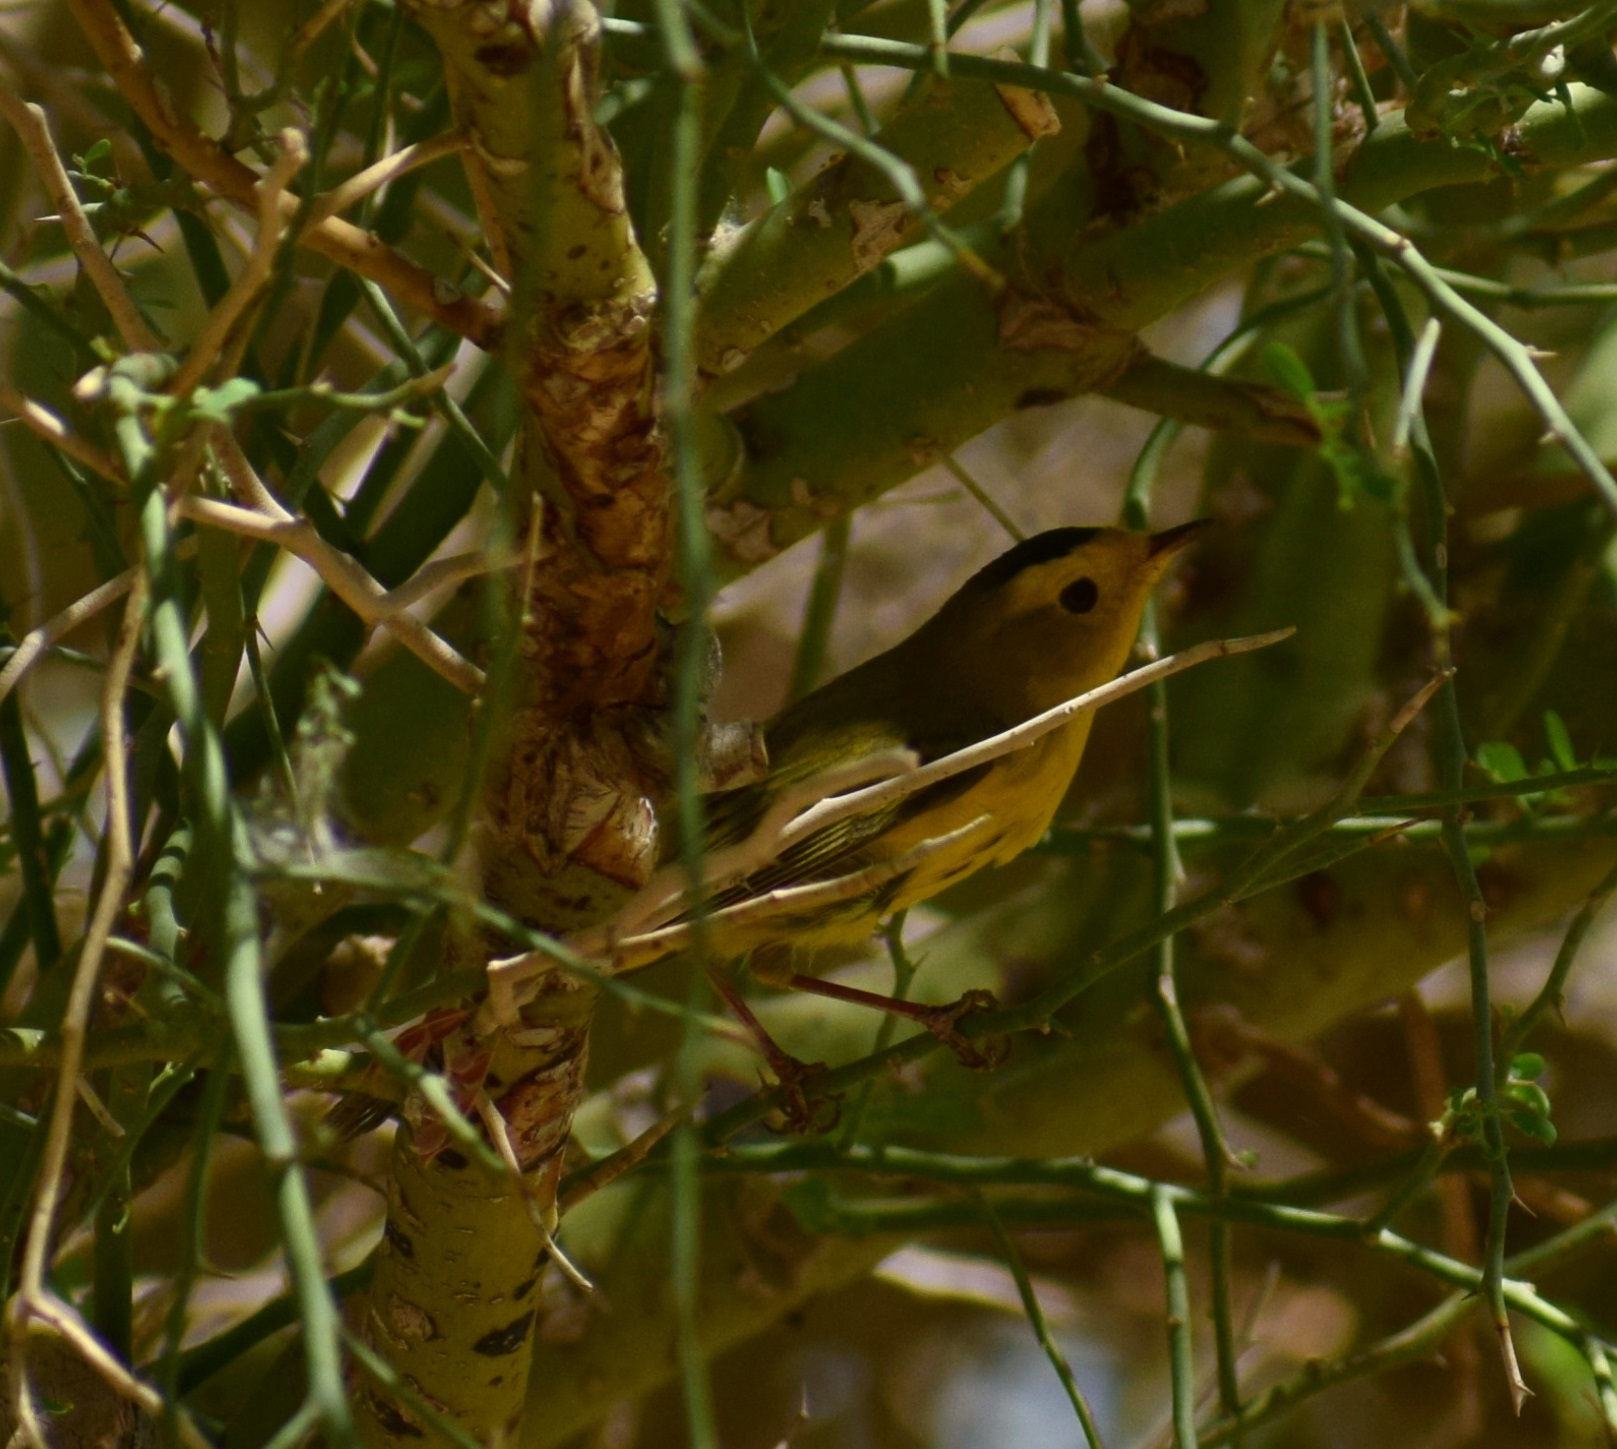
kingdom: Animalia
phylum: Chordata
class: Aves
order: Passeriformes
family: Parulidae
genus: Cardellina
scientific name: Cardellina pusilla
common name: Wilson's warbler
